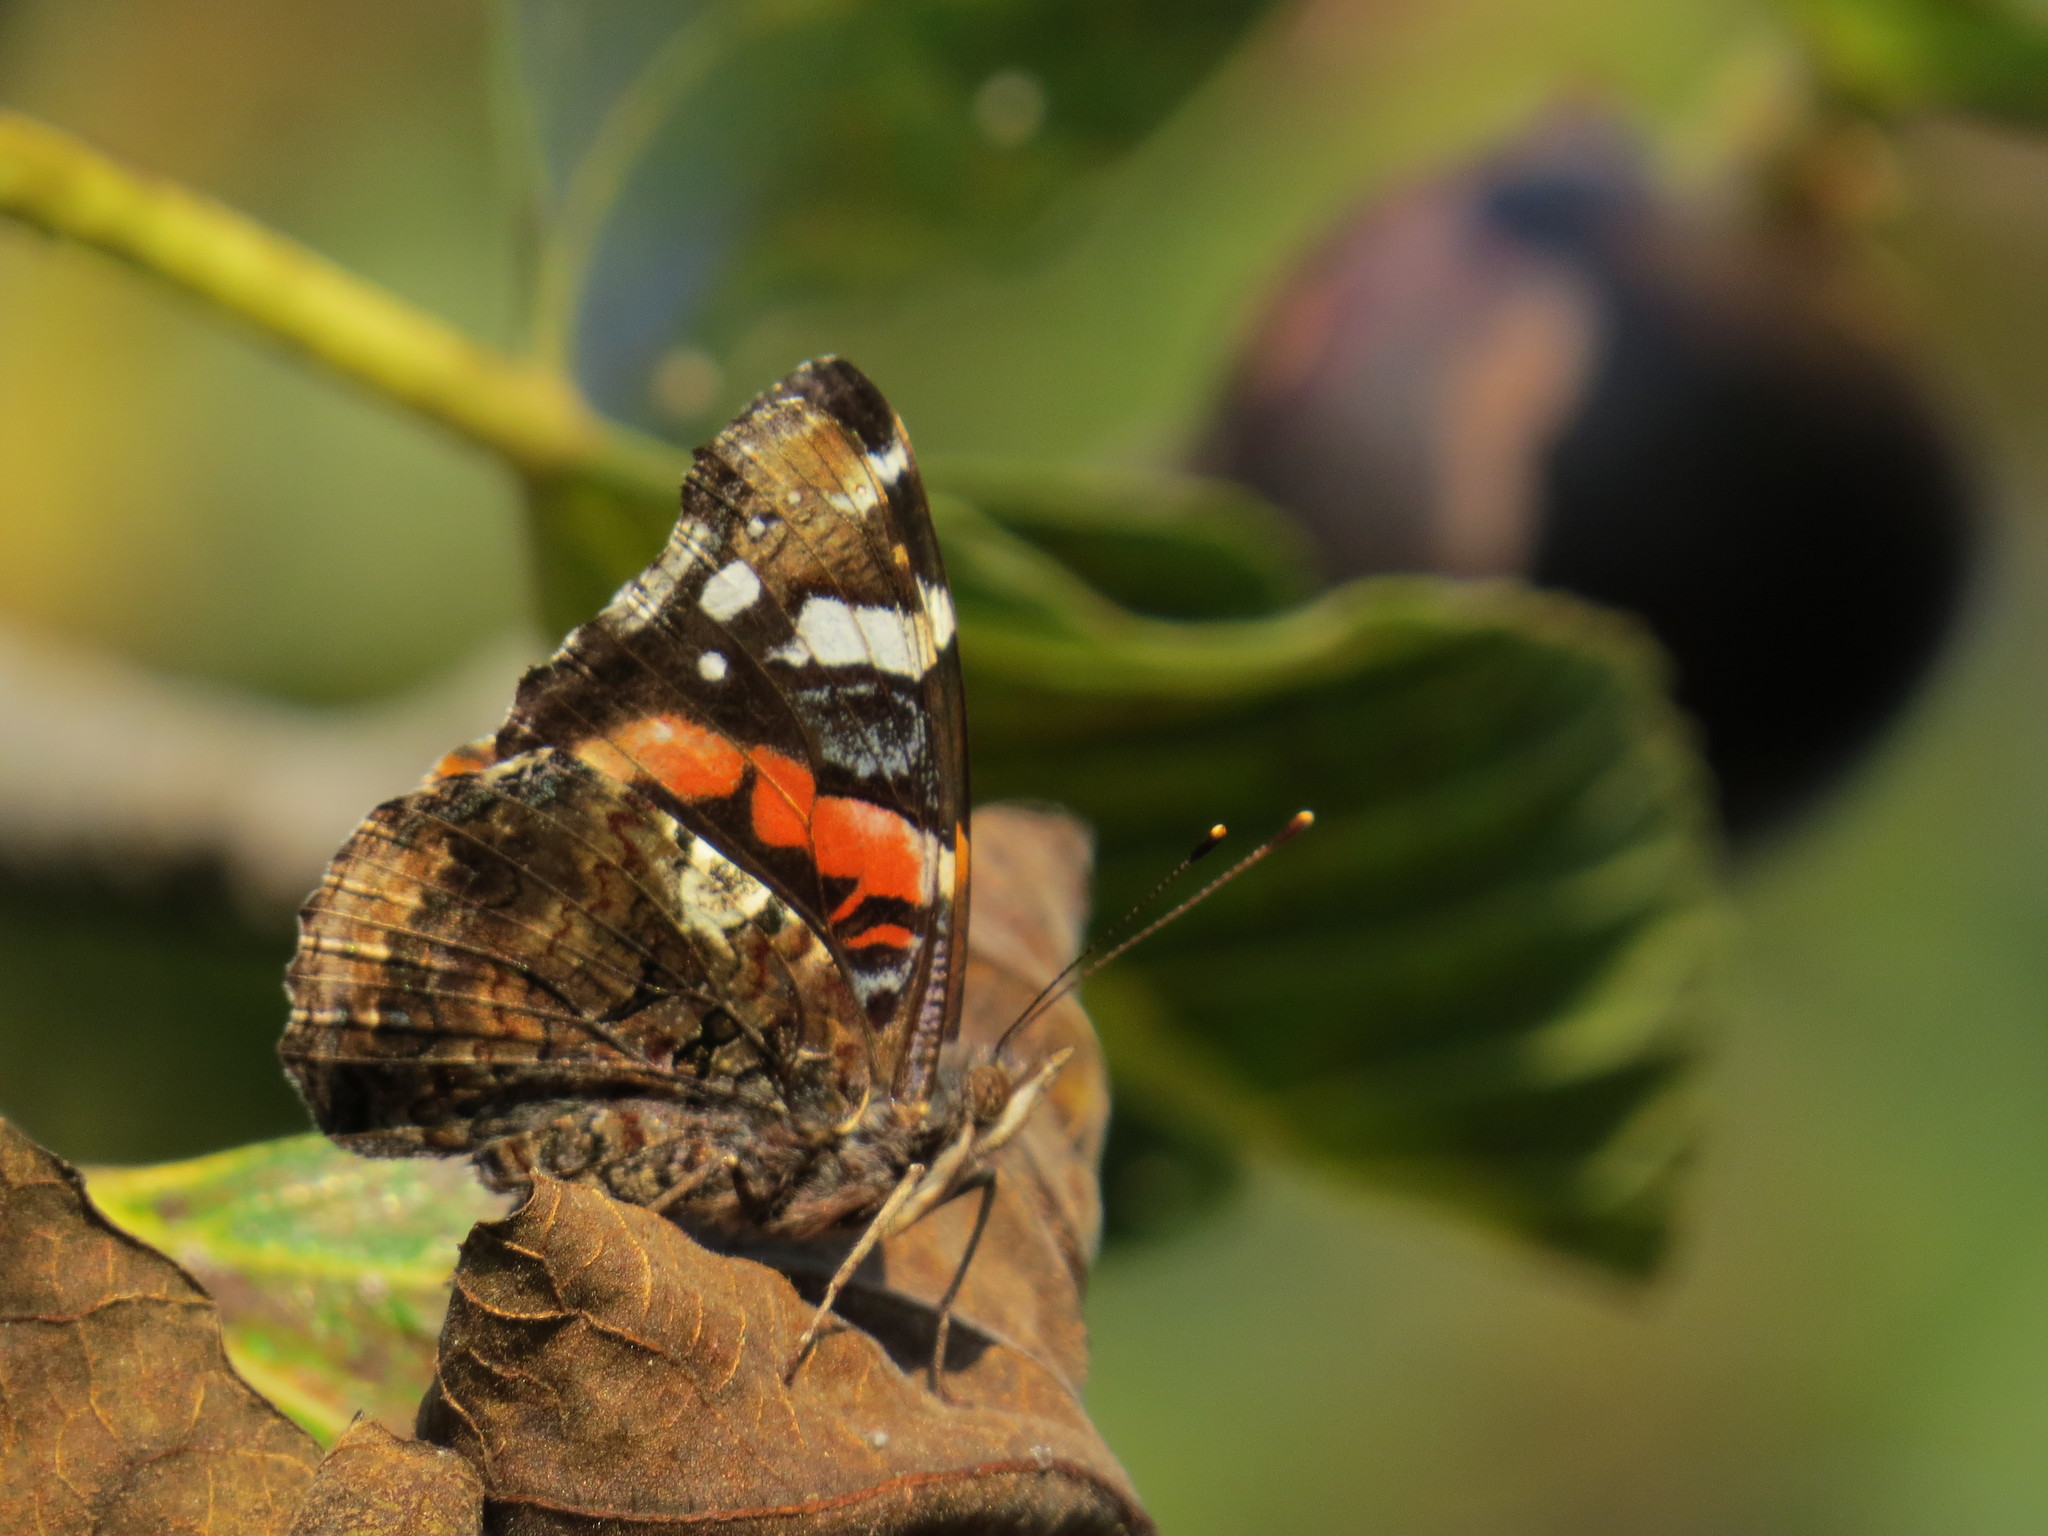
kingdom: Animalia
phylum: Arthropoda
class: Insecta
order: Lepidoptera
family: Nymphalidae
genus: Vanessa
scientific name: Vanessa atalanta
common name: Red admiral
